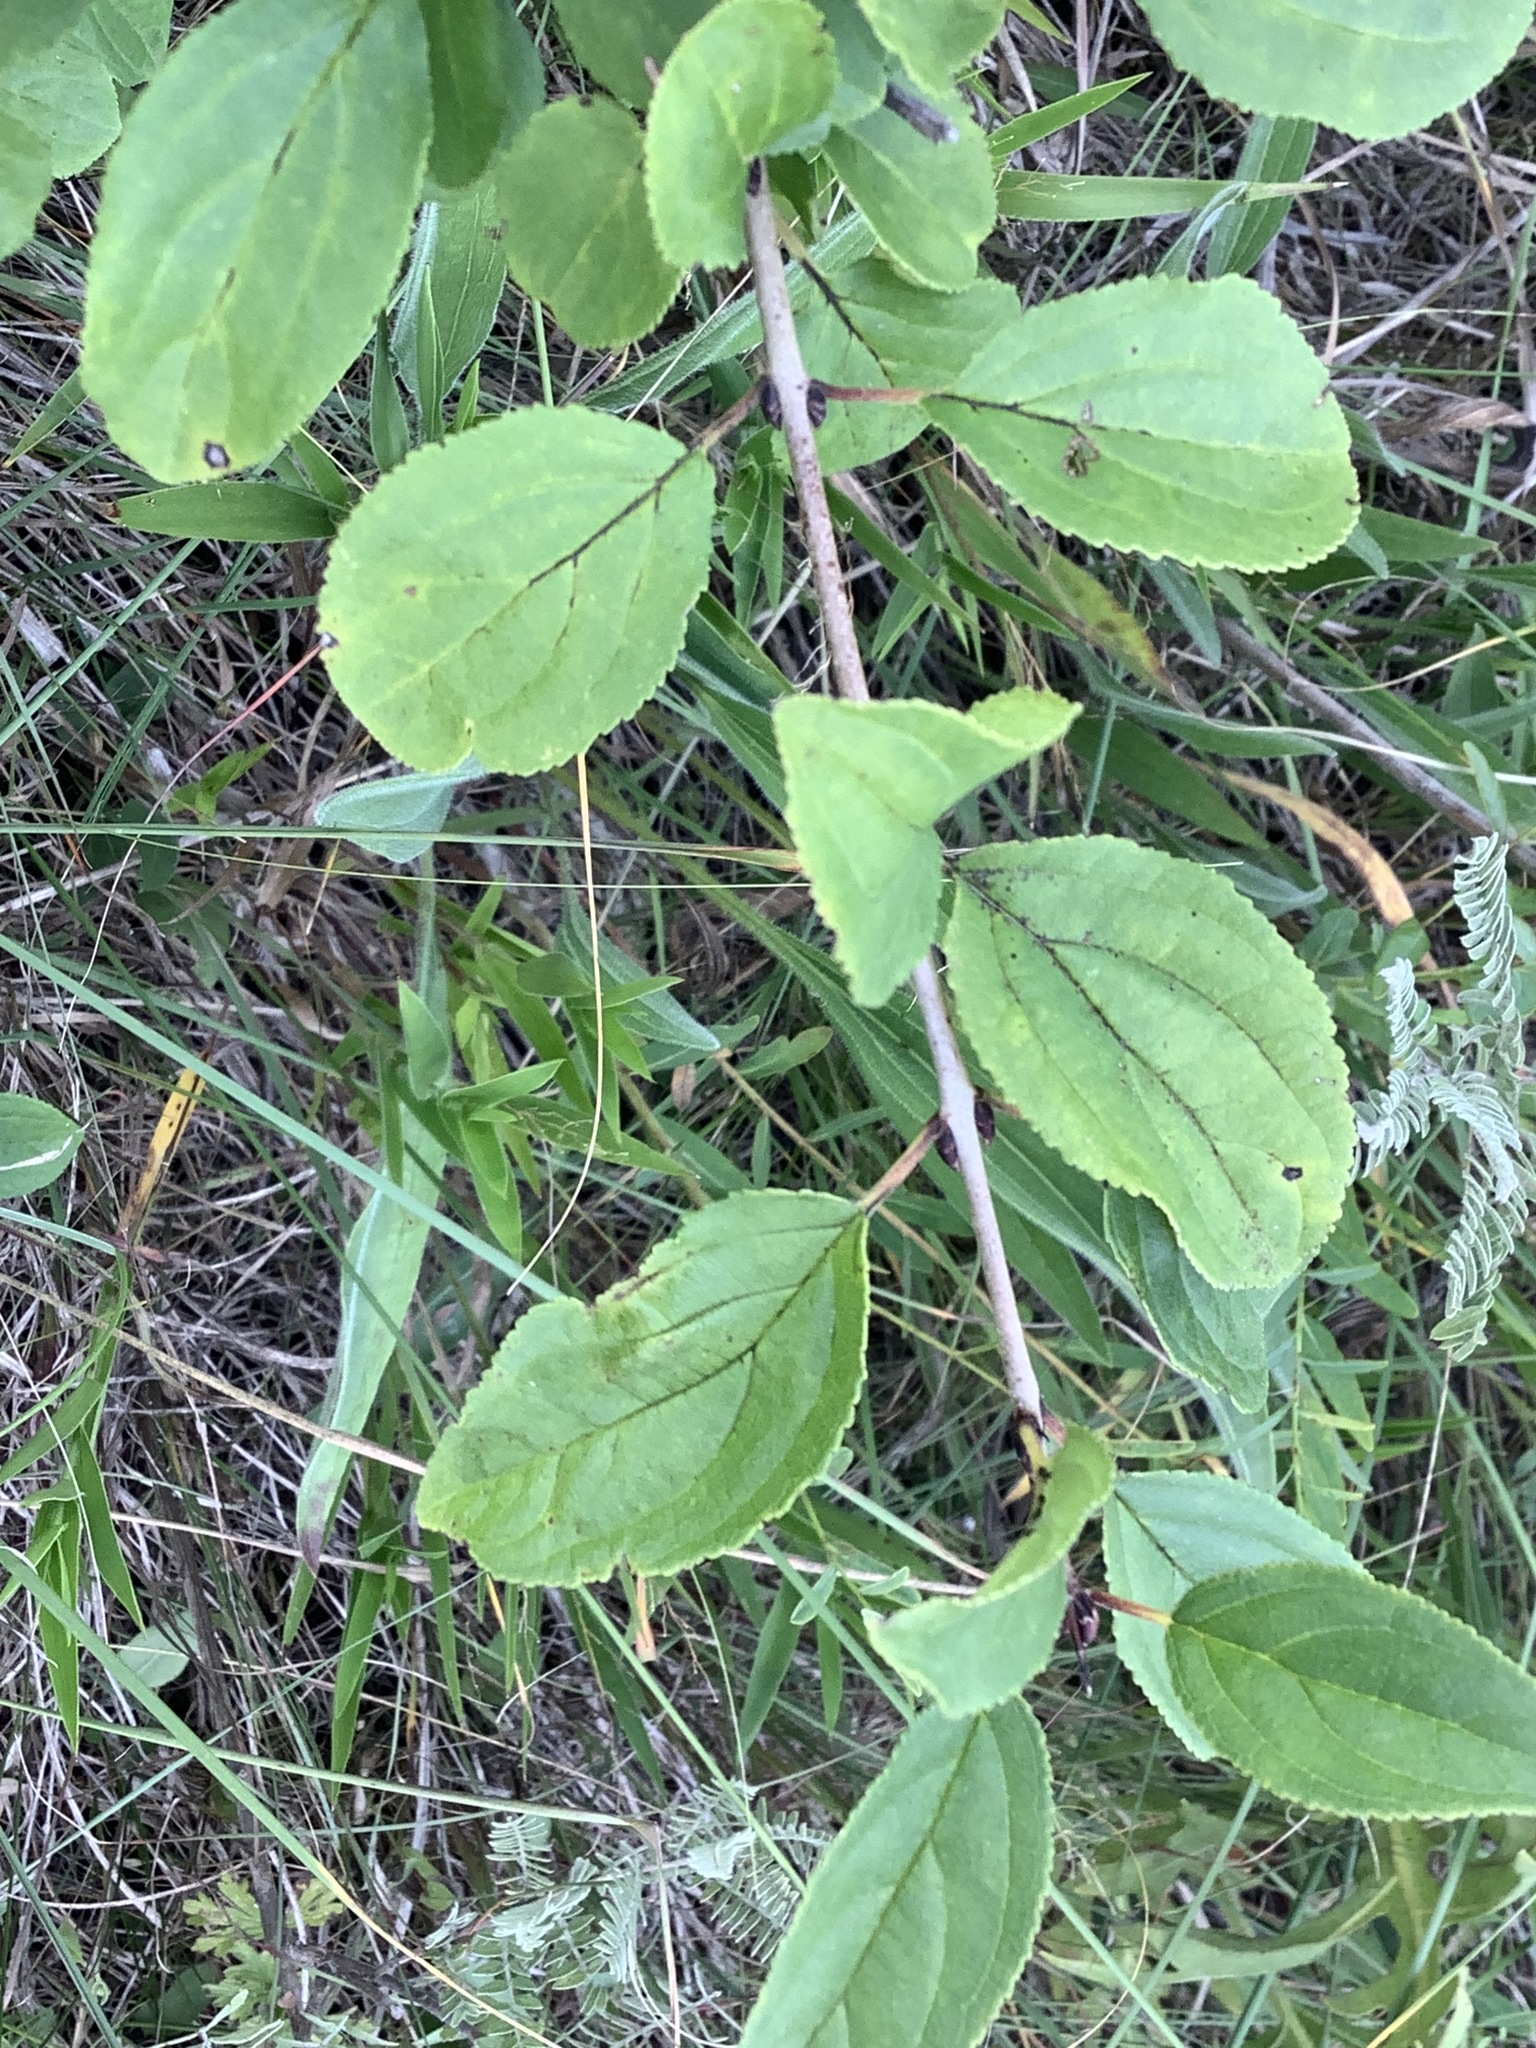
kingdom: Plantae
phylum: Tracheophyta
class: Magnoliopsida
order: Rosales
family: Rhamnaceae
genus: Rhamnus
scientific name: Rhamnus cathartica
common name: Common buckthorn
